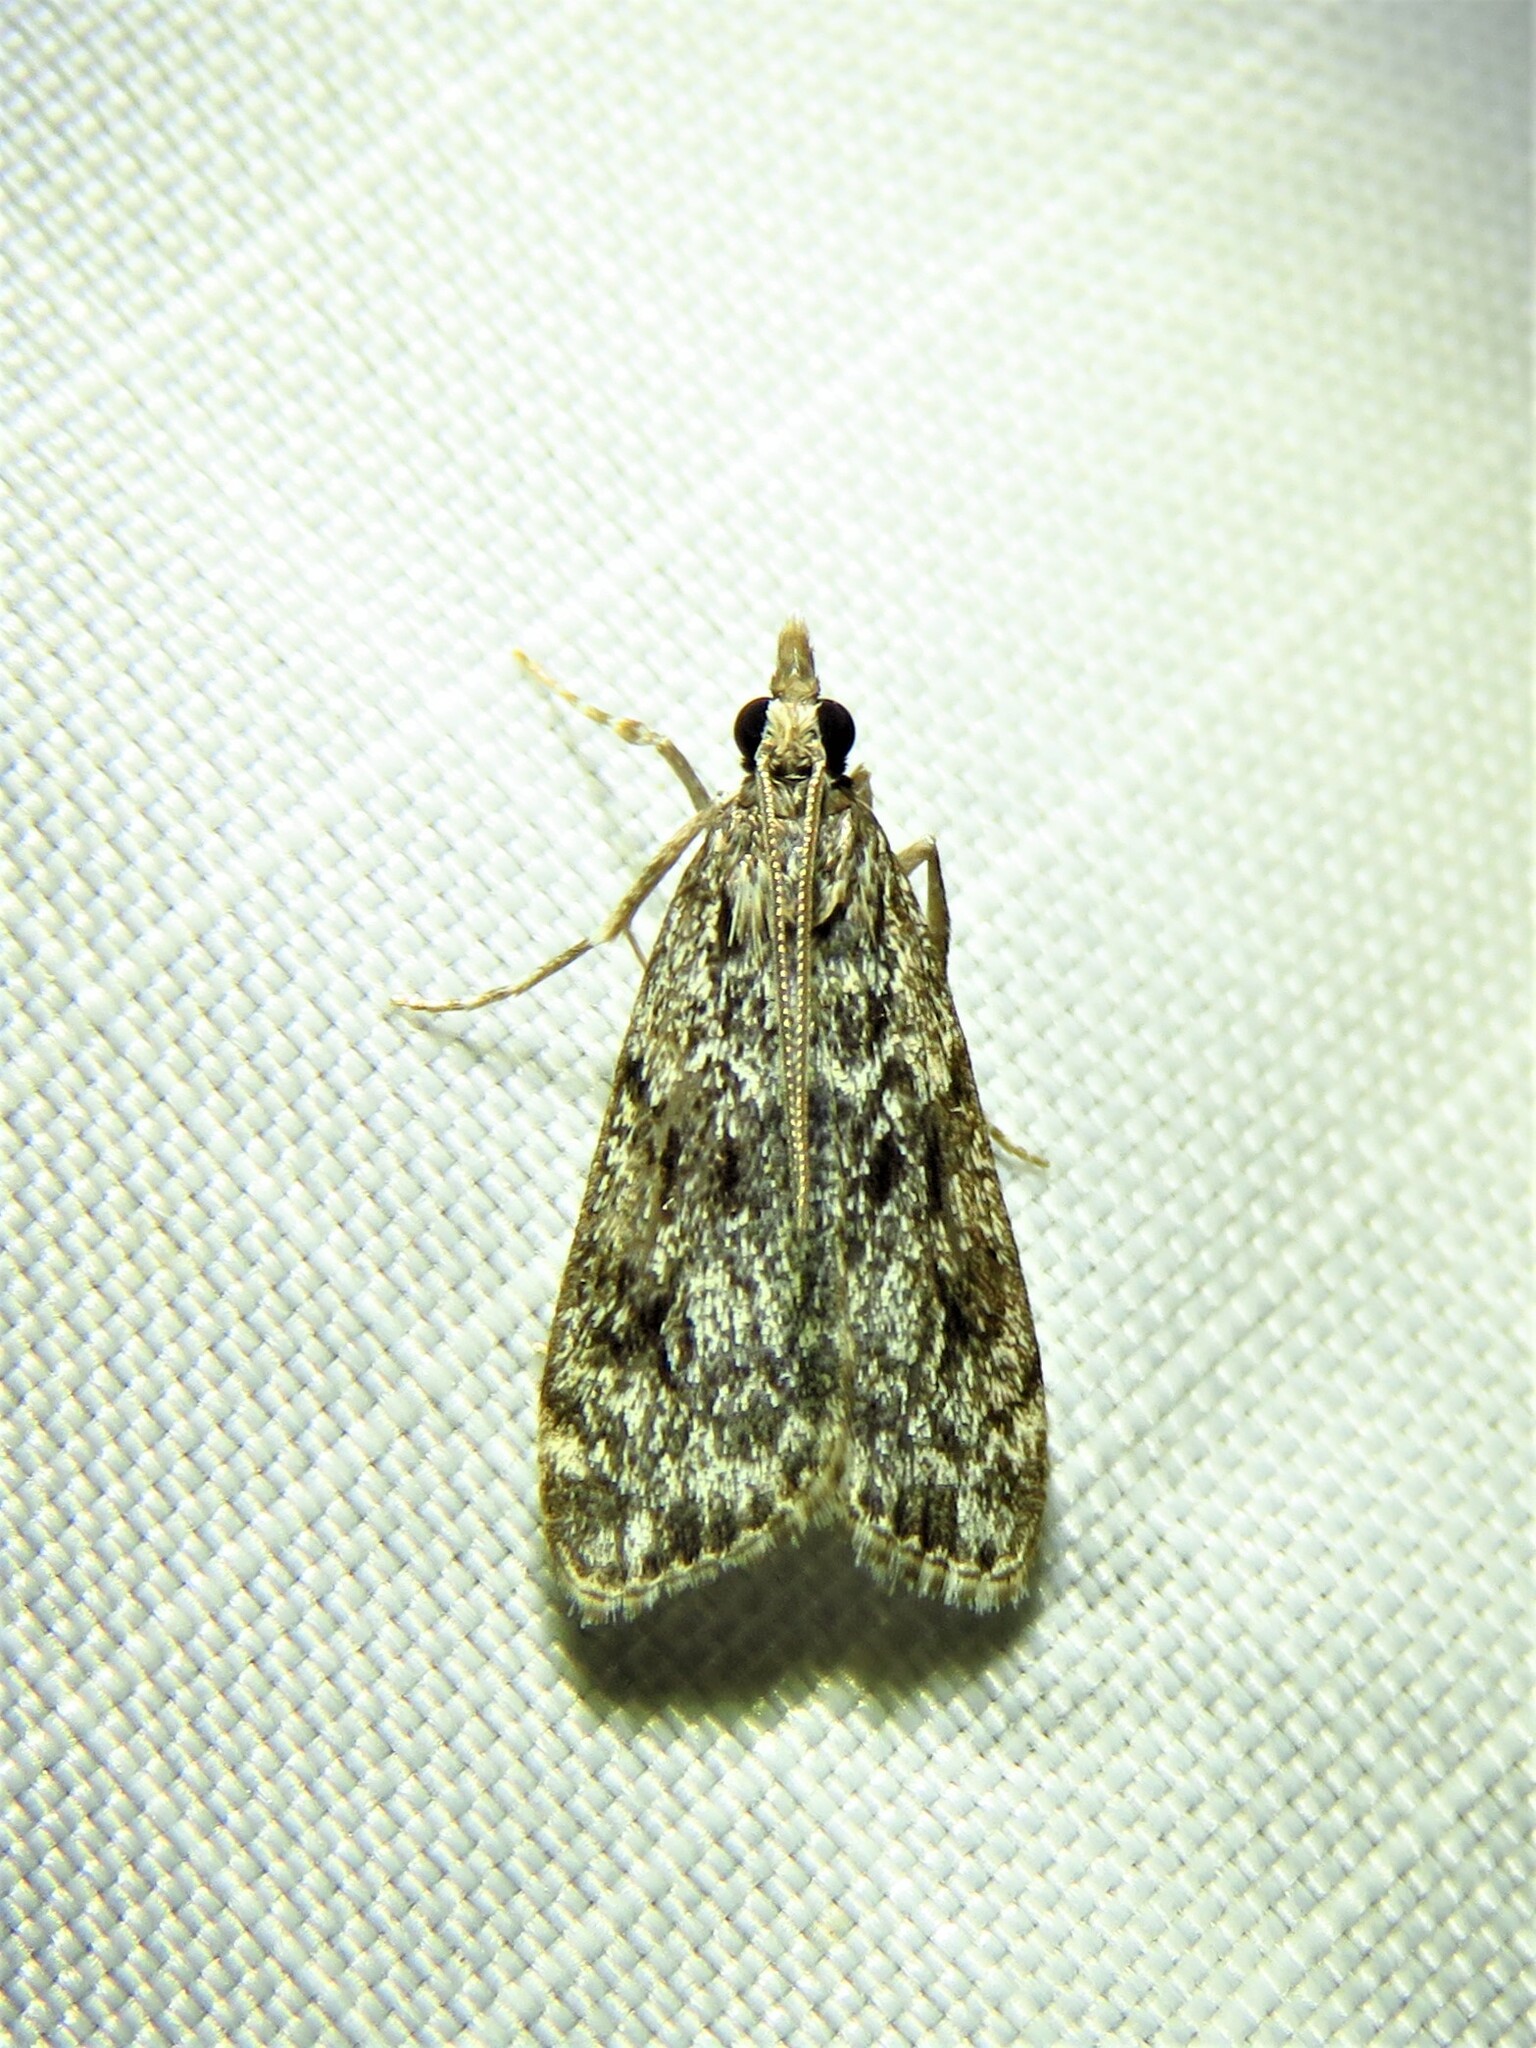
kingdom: Animalia
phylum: Arthropoda
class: Insecta
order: Lepidoptera
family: Crambidae
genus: Eudonia
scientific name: Eudonia truncicolella
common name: Ground-moss grey
